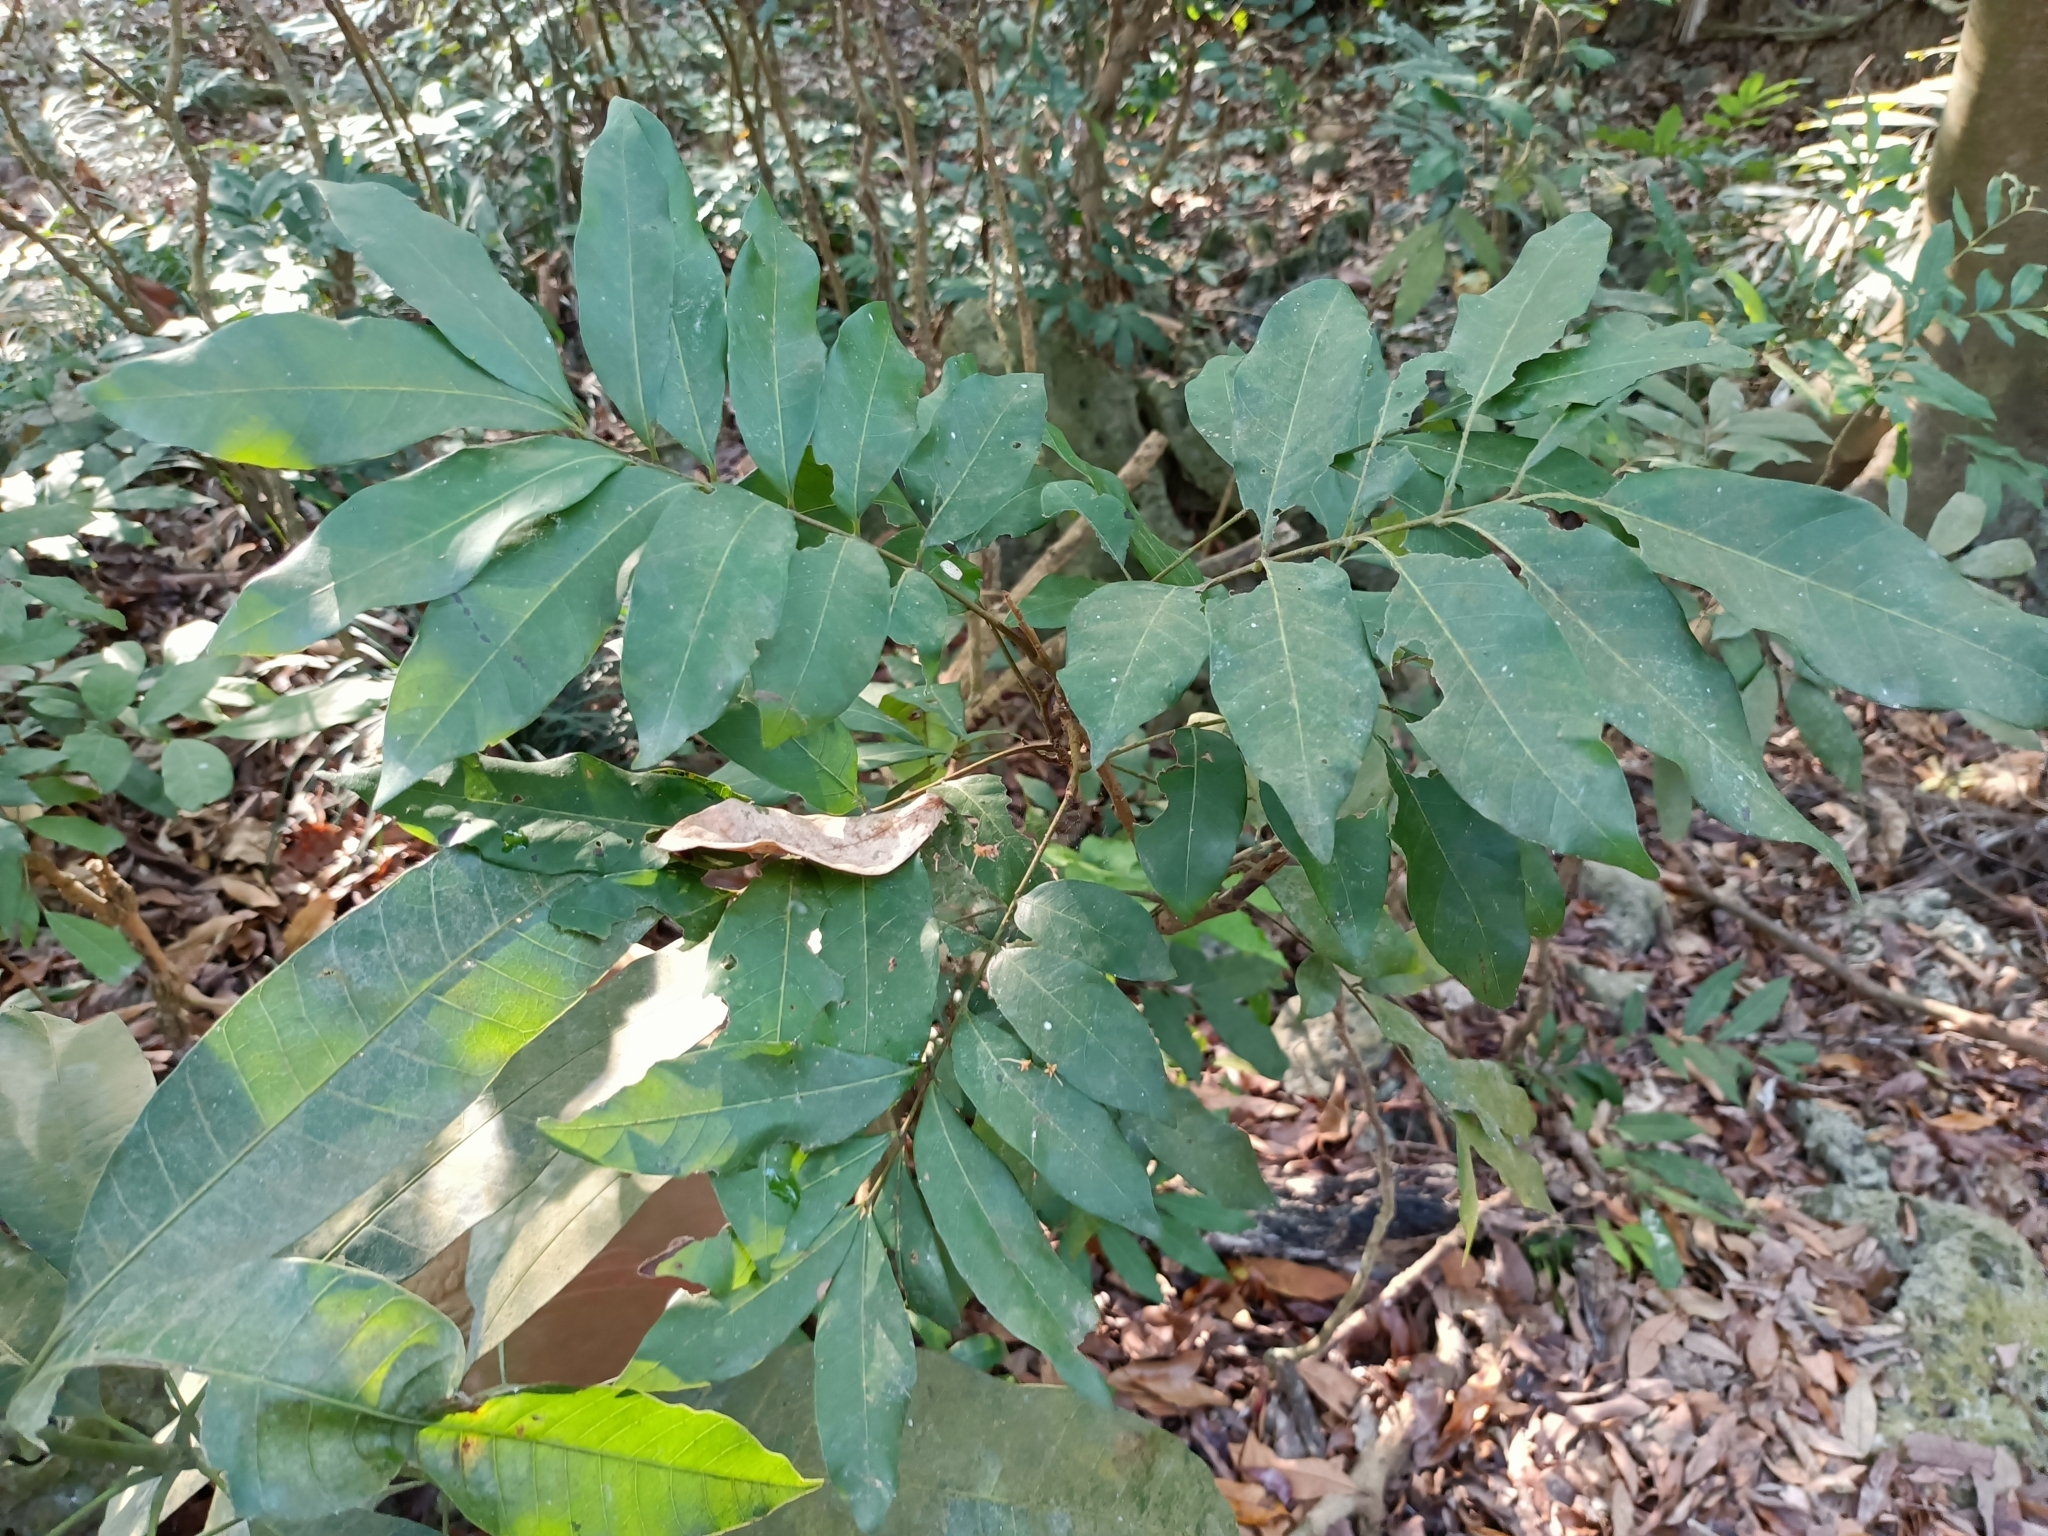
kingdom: Plantae
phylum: Tracheophyta
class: Magnoliopsida
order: Sapindales
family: Sapindaceae
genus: Dimocarpus
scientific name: Dimocarpus longan
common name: Longan
